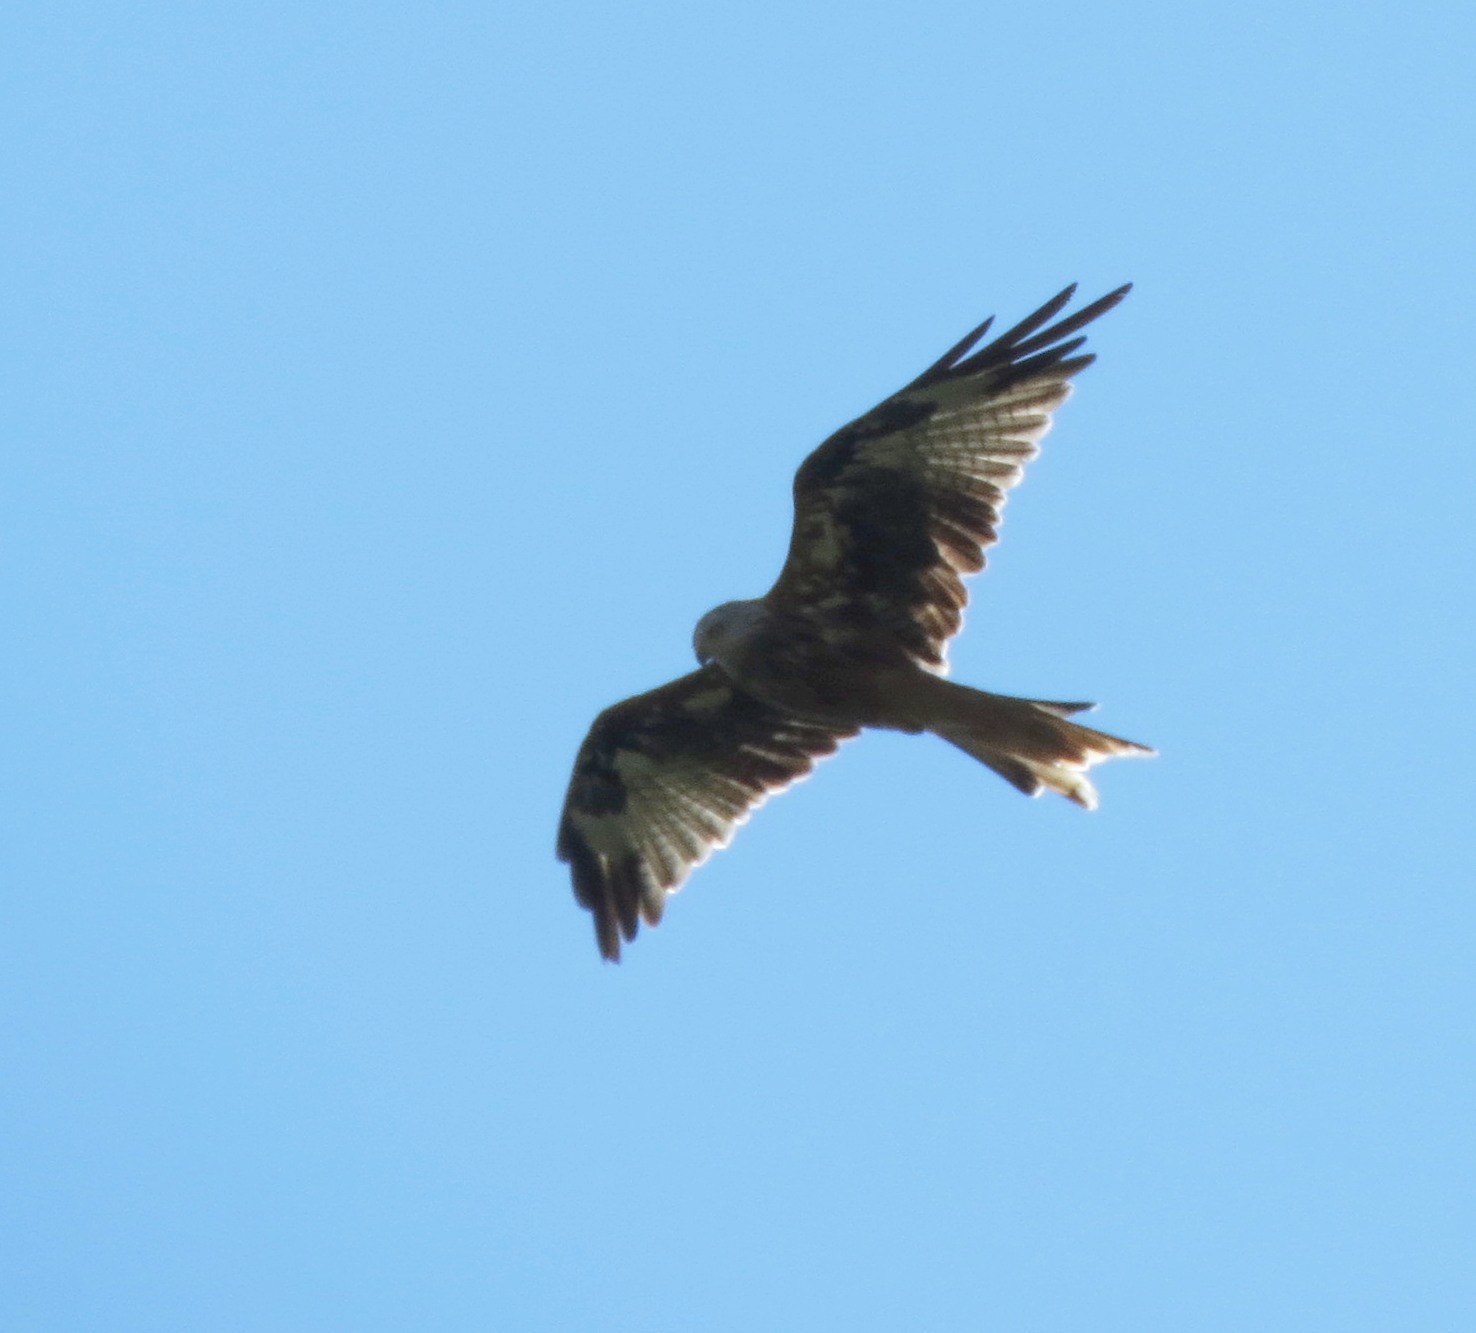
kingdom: Animalia
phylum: Chordata
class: Aves
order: Accipitriformes
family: Accipitridae
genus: Milvus
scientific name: Milvus milvus
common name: Red kite
